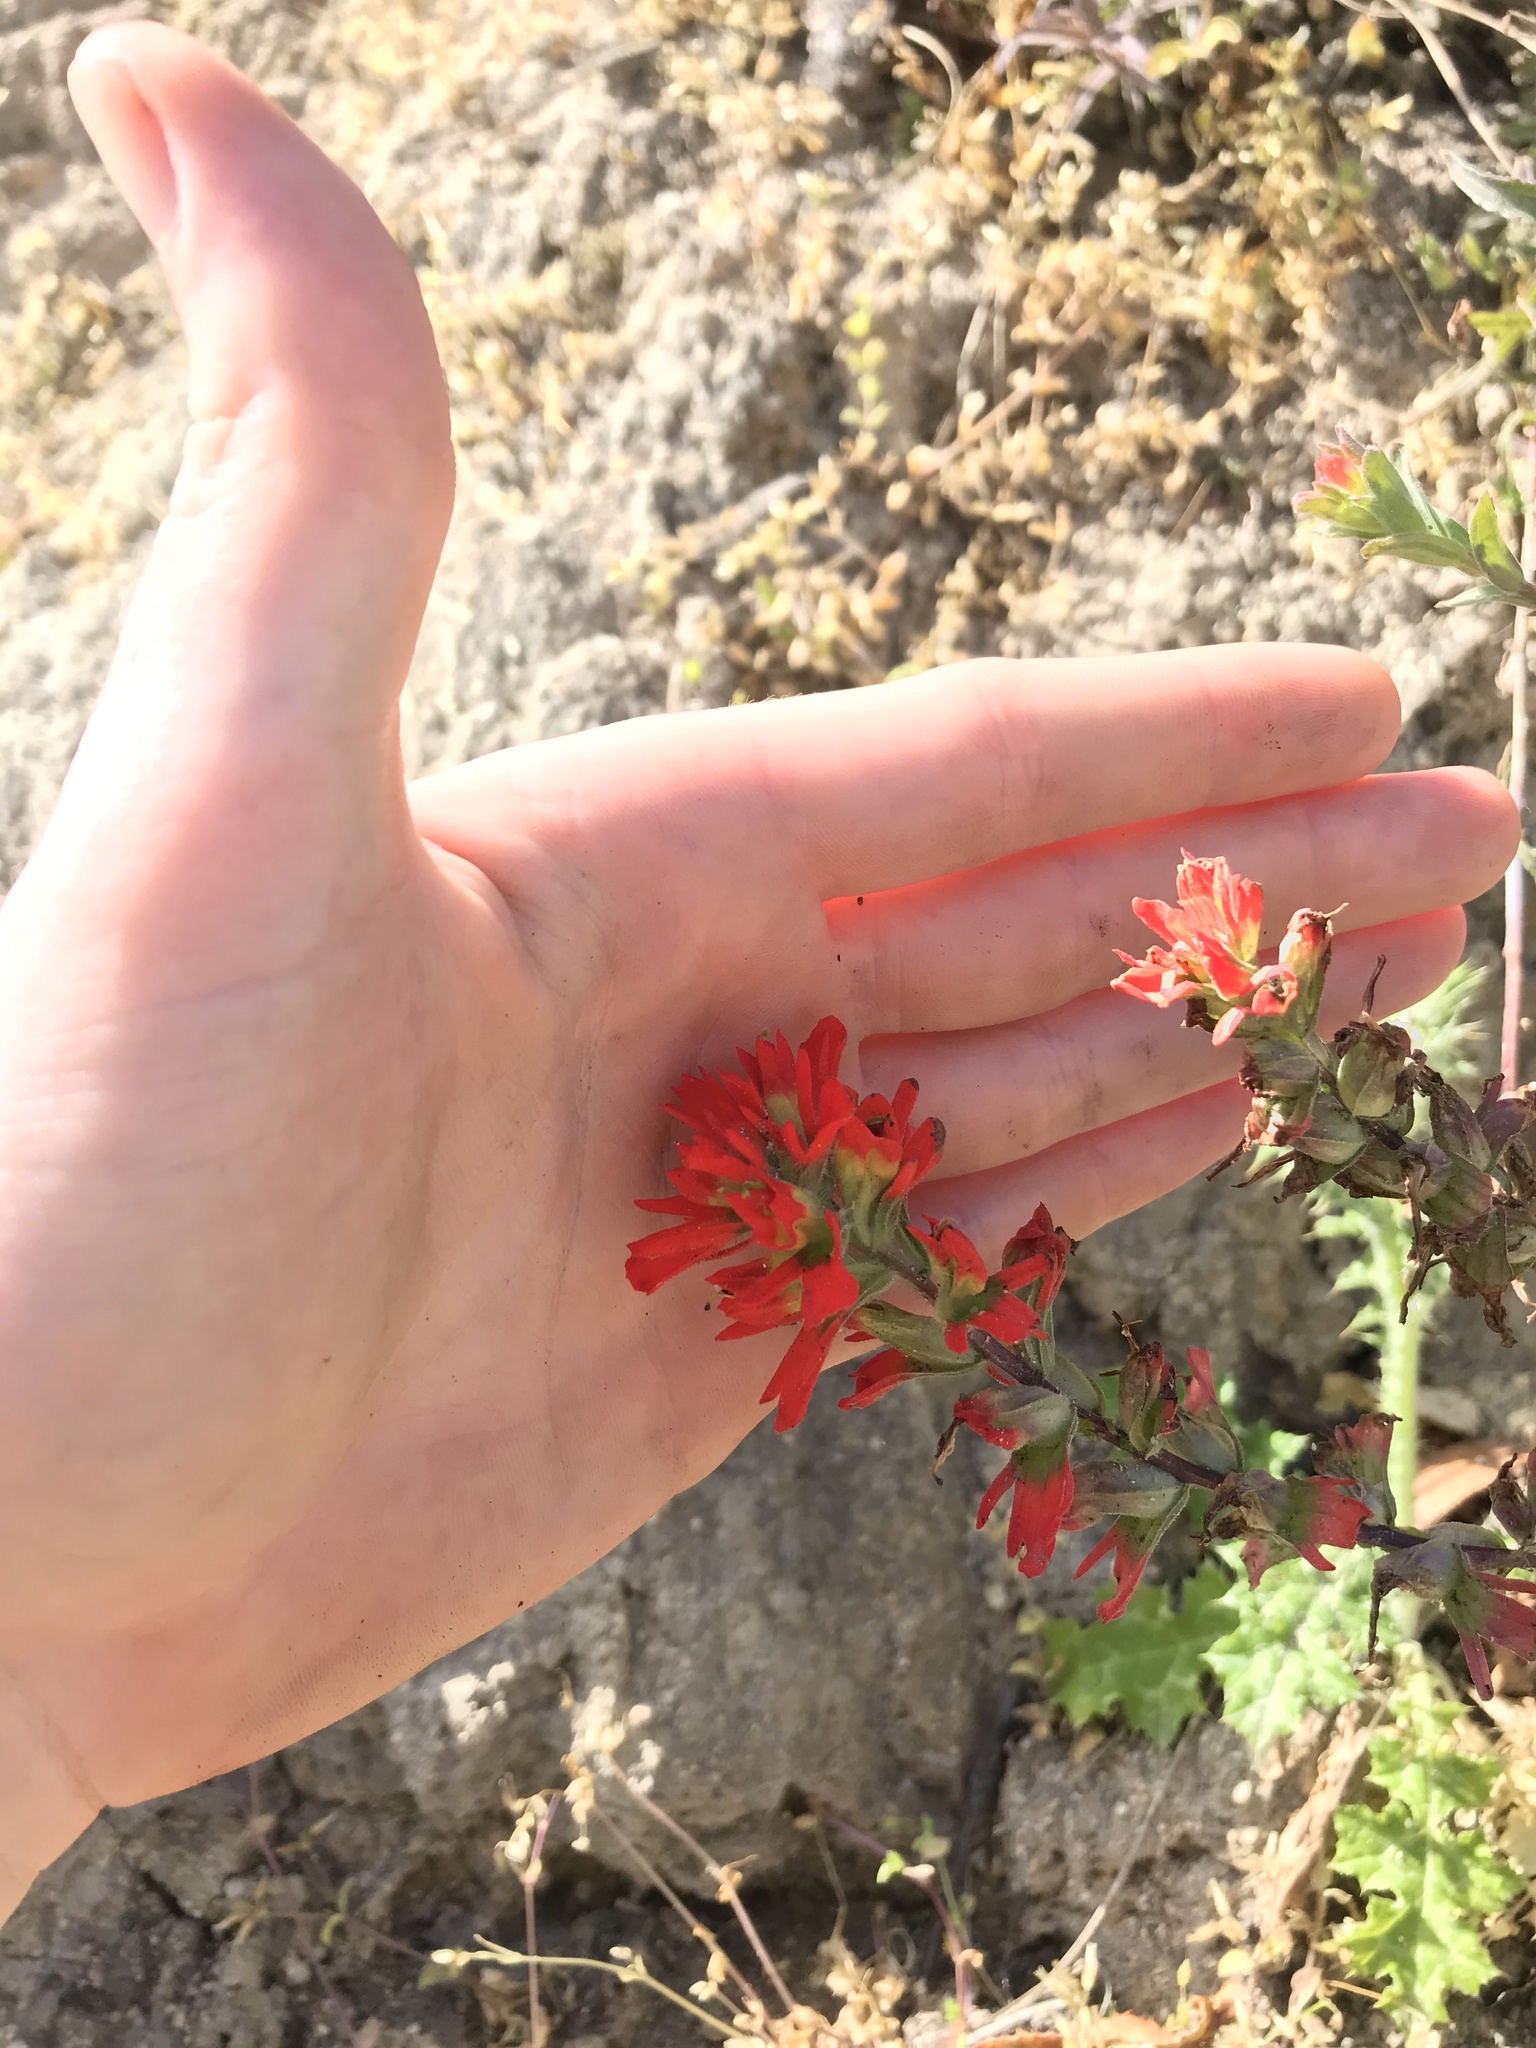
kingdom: Plantae
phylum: Tracheophyta
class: Magnoliopsida
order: Lamiales
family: Orobanchaceae
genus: Castilleja
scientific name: Castilleja affinis
